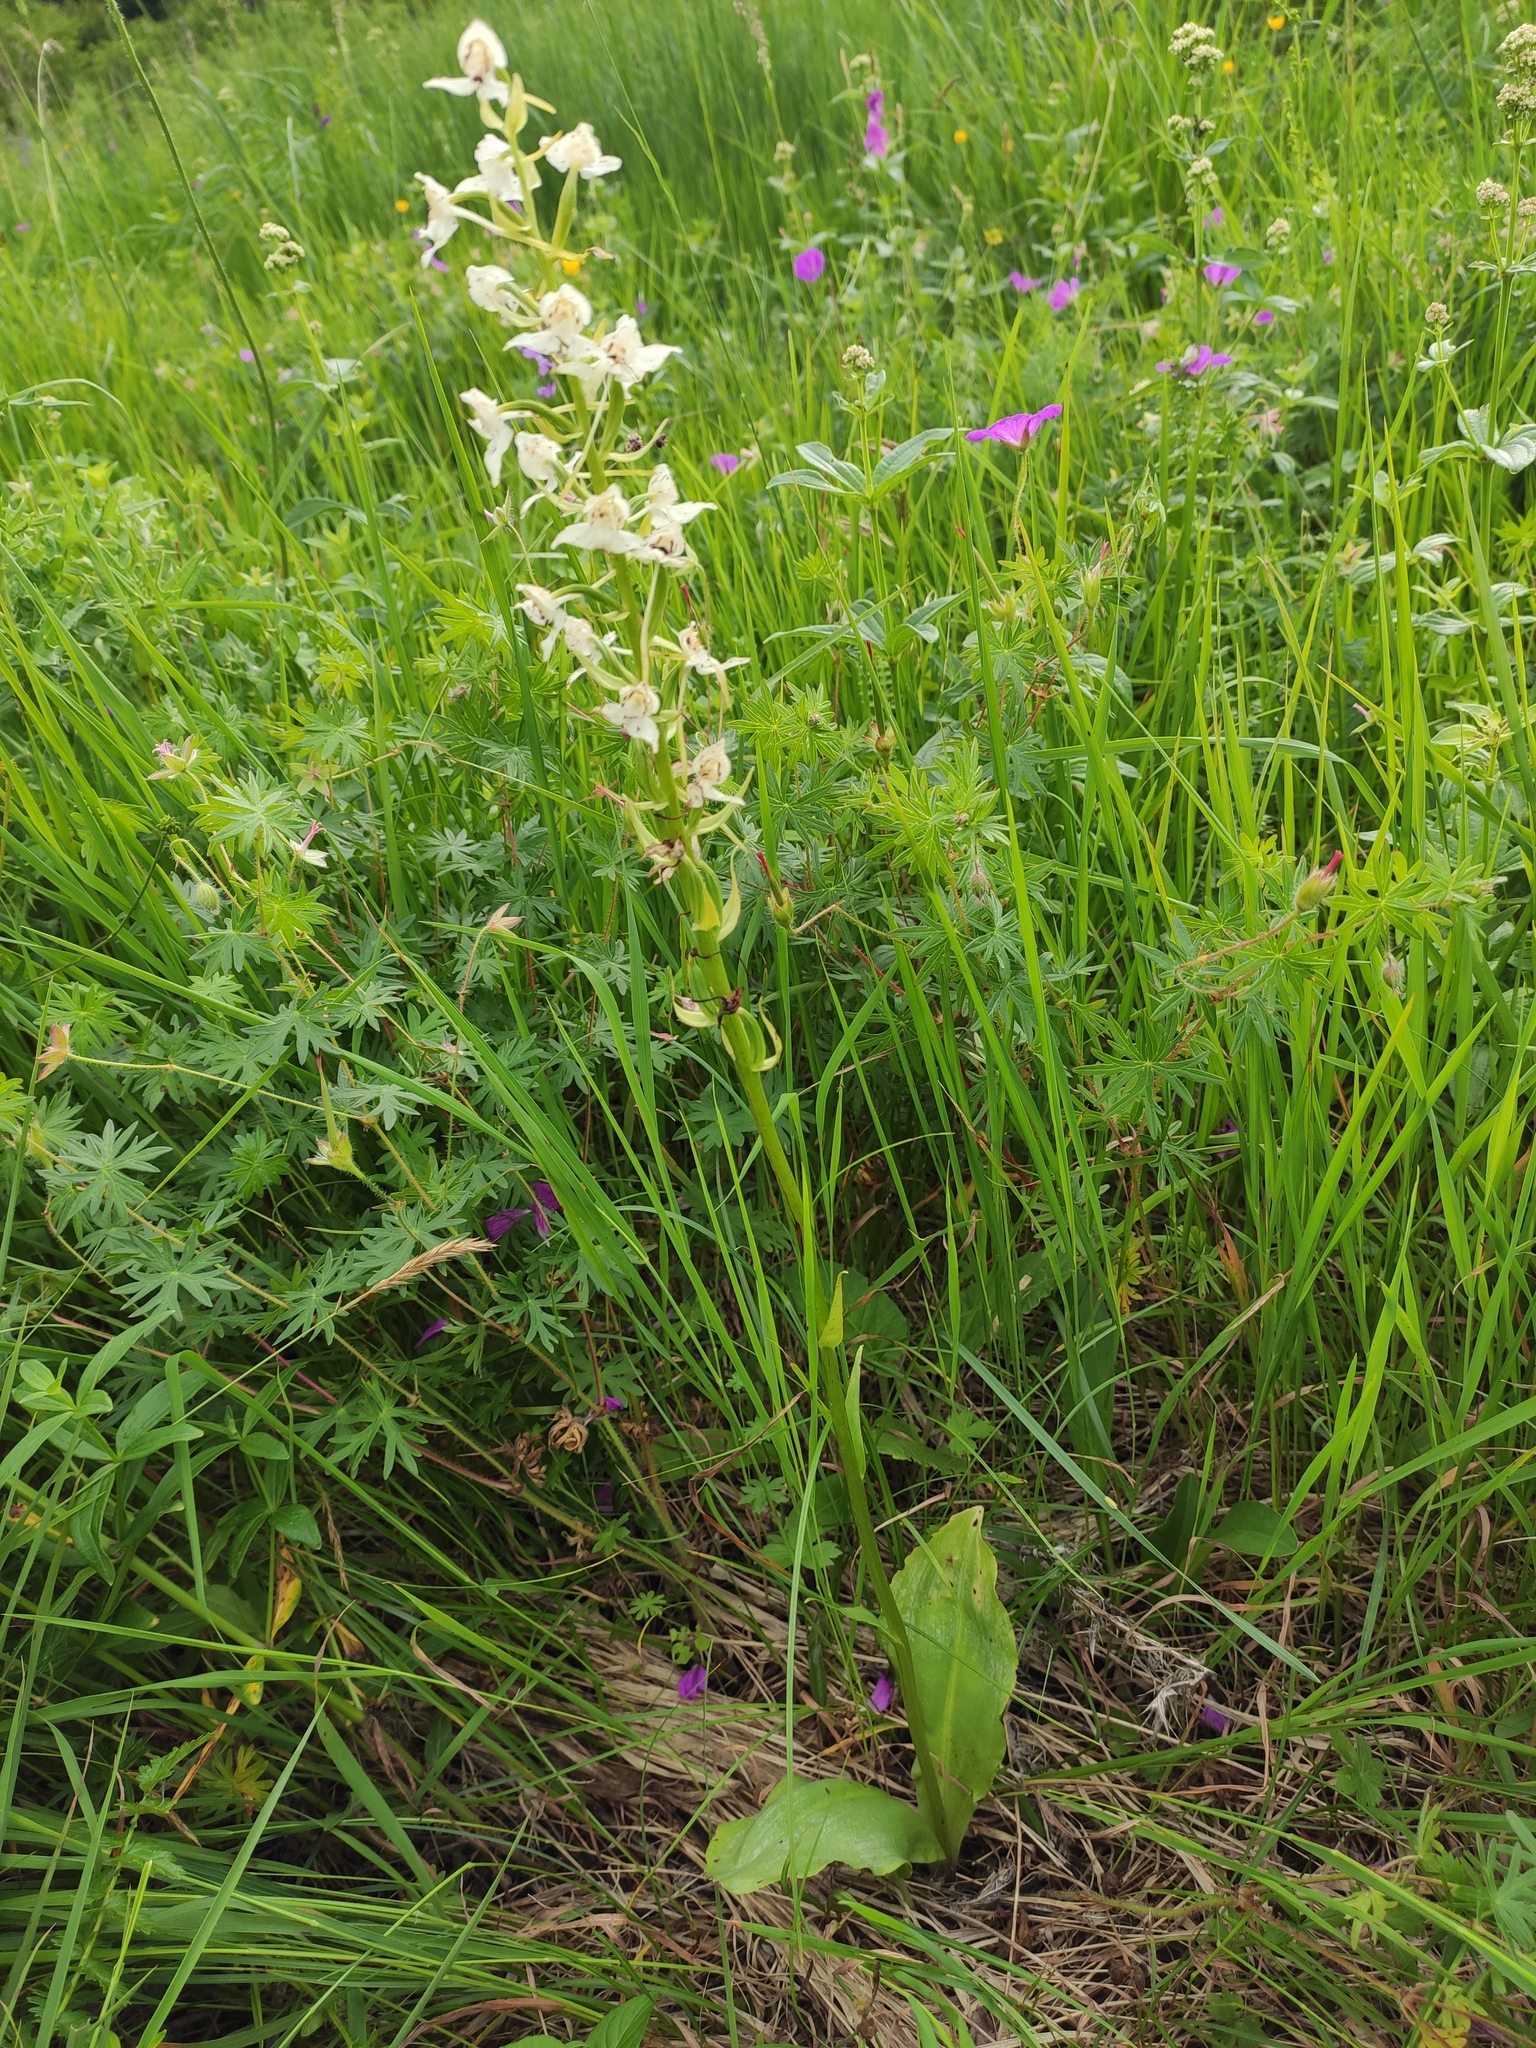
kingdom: Plantae
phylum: Tracheophyta
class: Liliopsida
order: Asparagales
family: Orchidaceae
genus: Platanthera
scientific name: Platanthera chlorantha
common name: Greater butterfly-orchid
